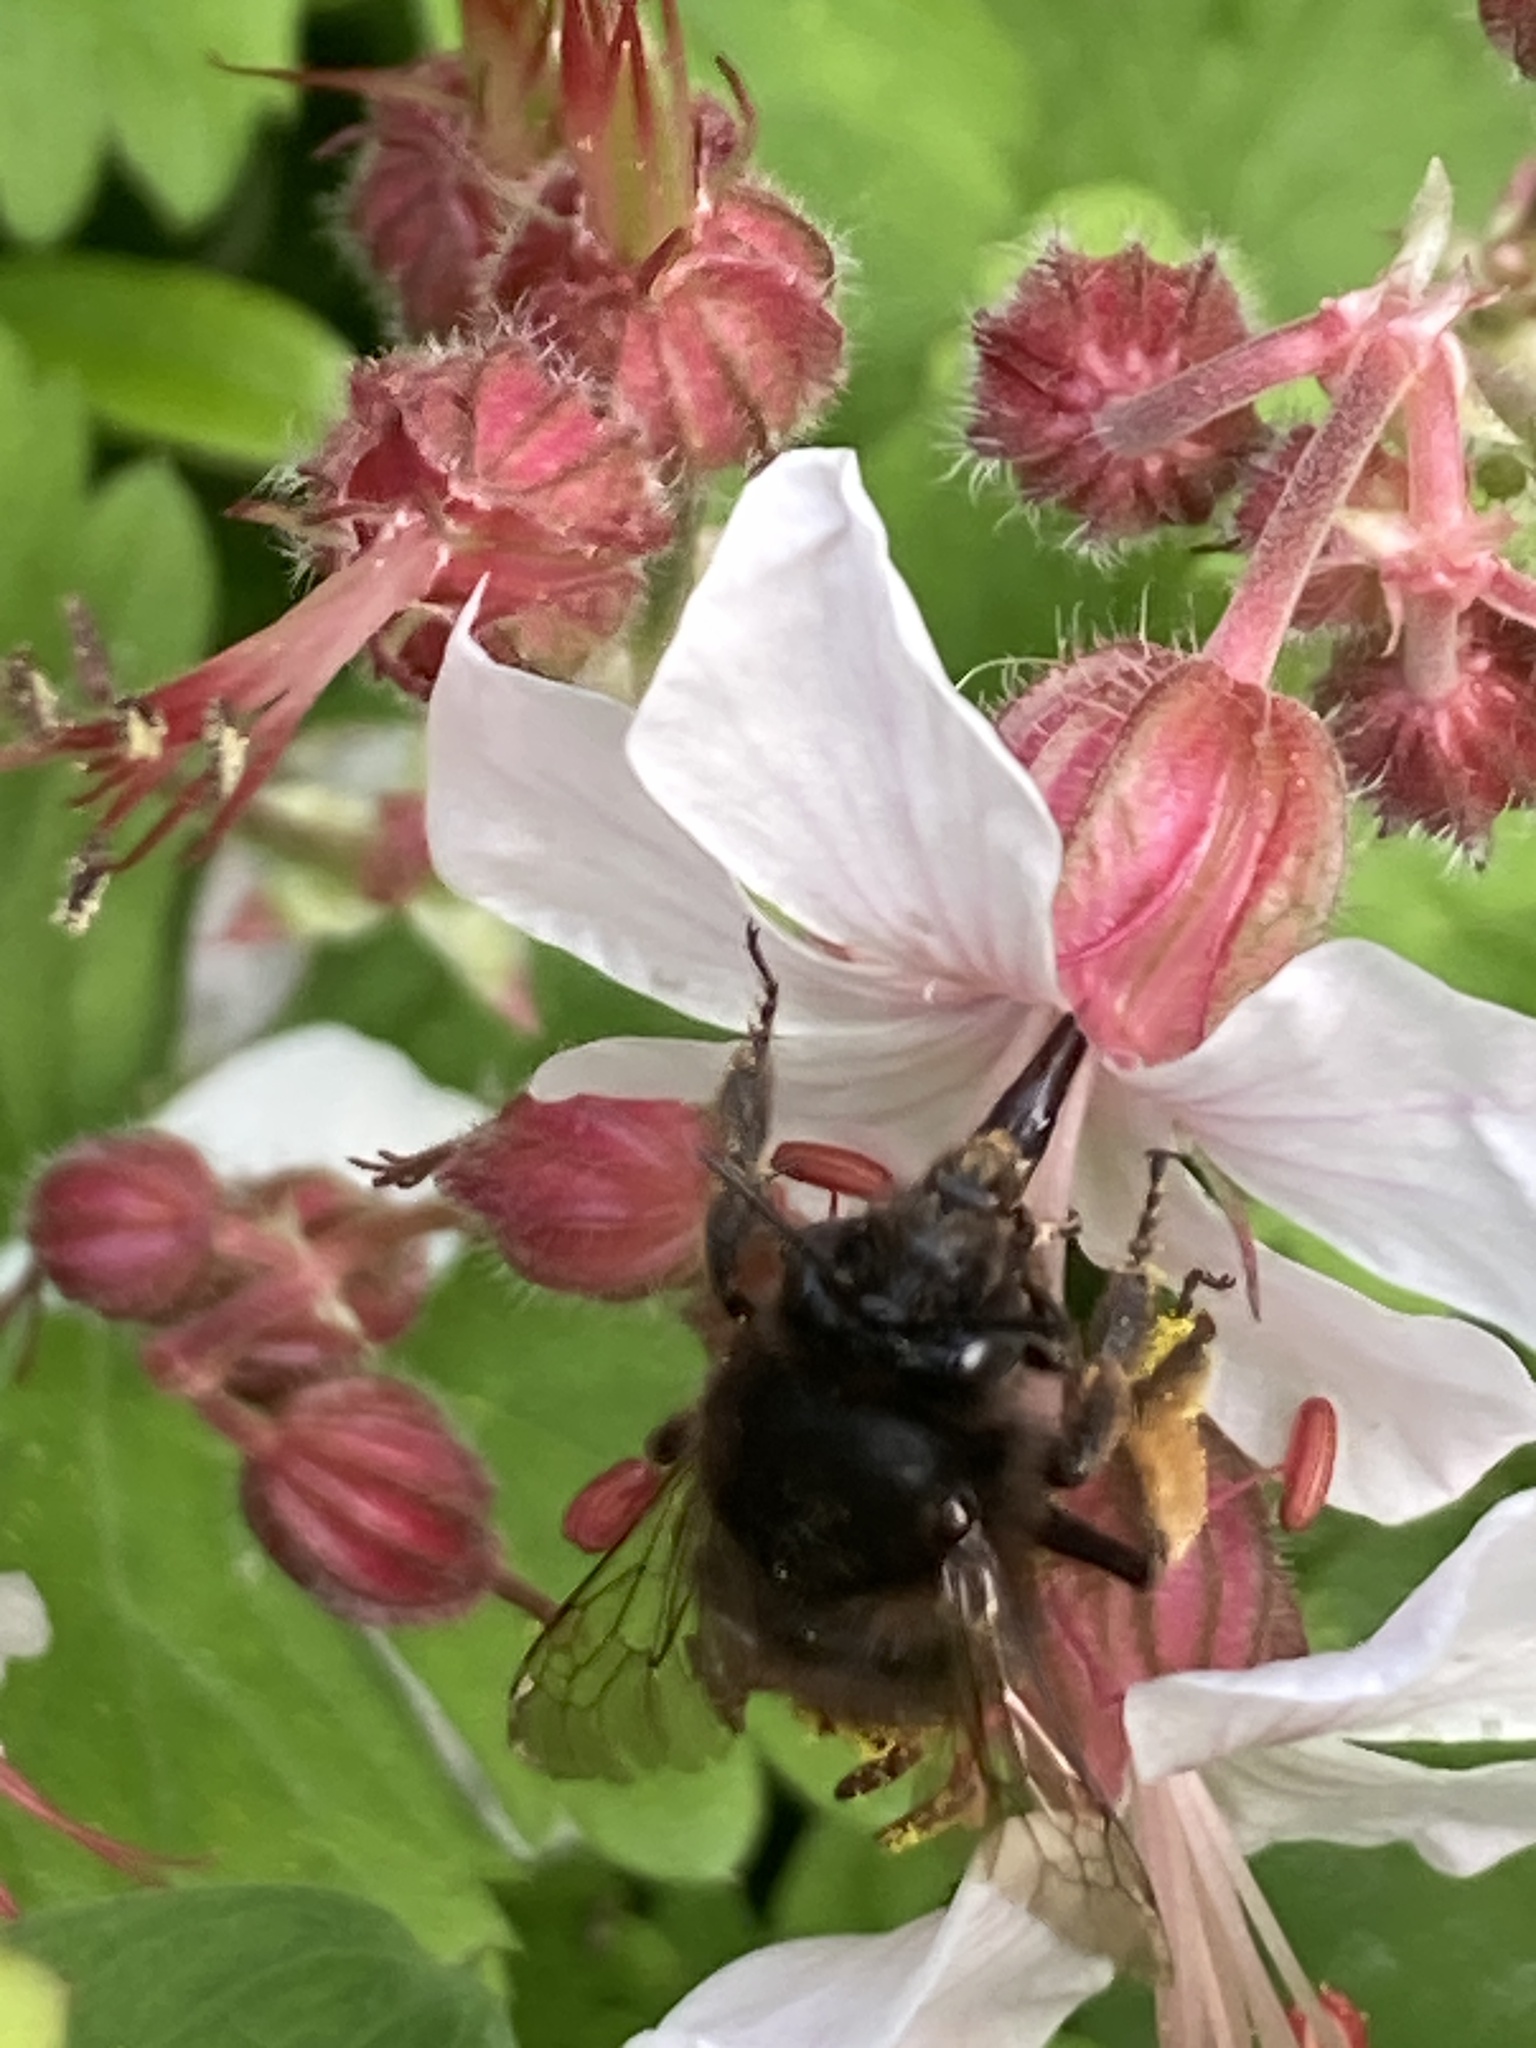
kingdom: Animalia
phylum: Arthropoda
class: Insecta
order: Hymenoptera
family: Apidae
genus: Anthophora
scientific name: Anthophora plumipes
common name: Hairy-footed flower bee
